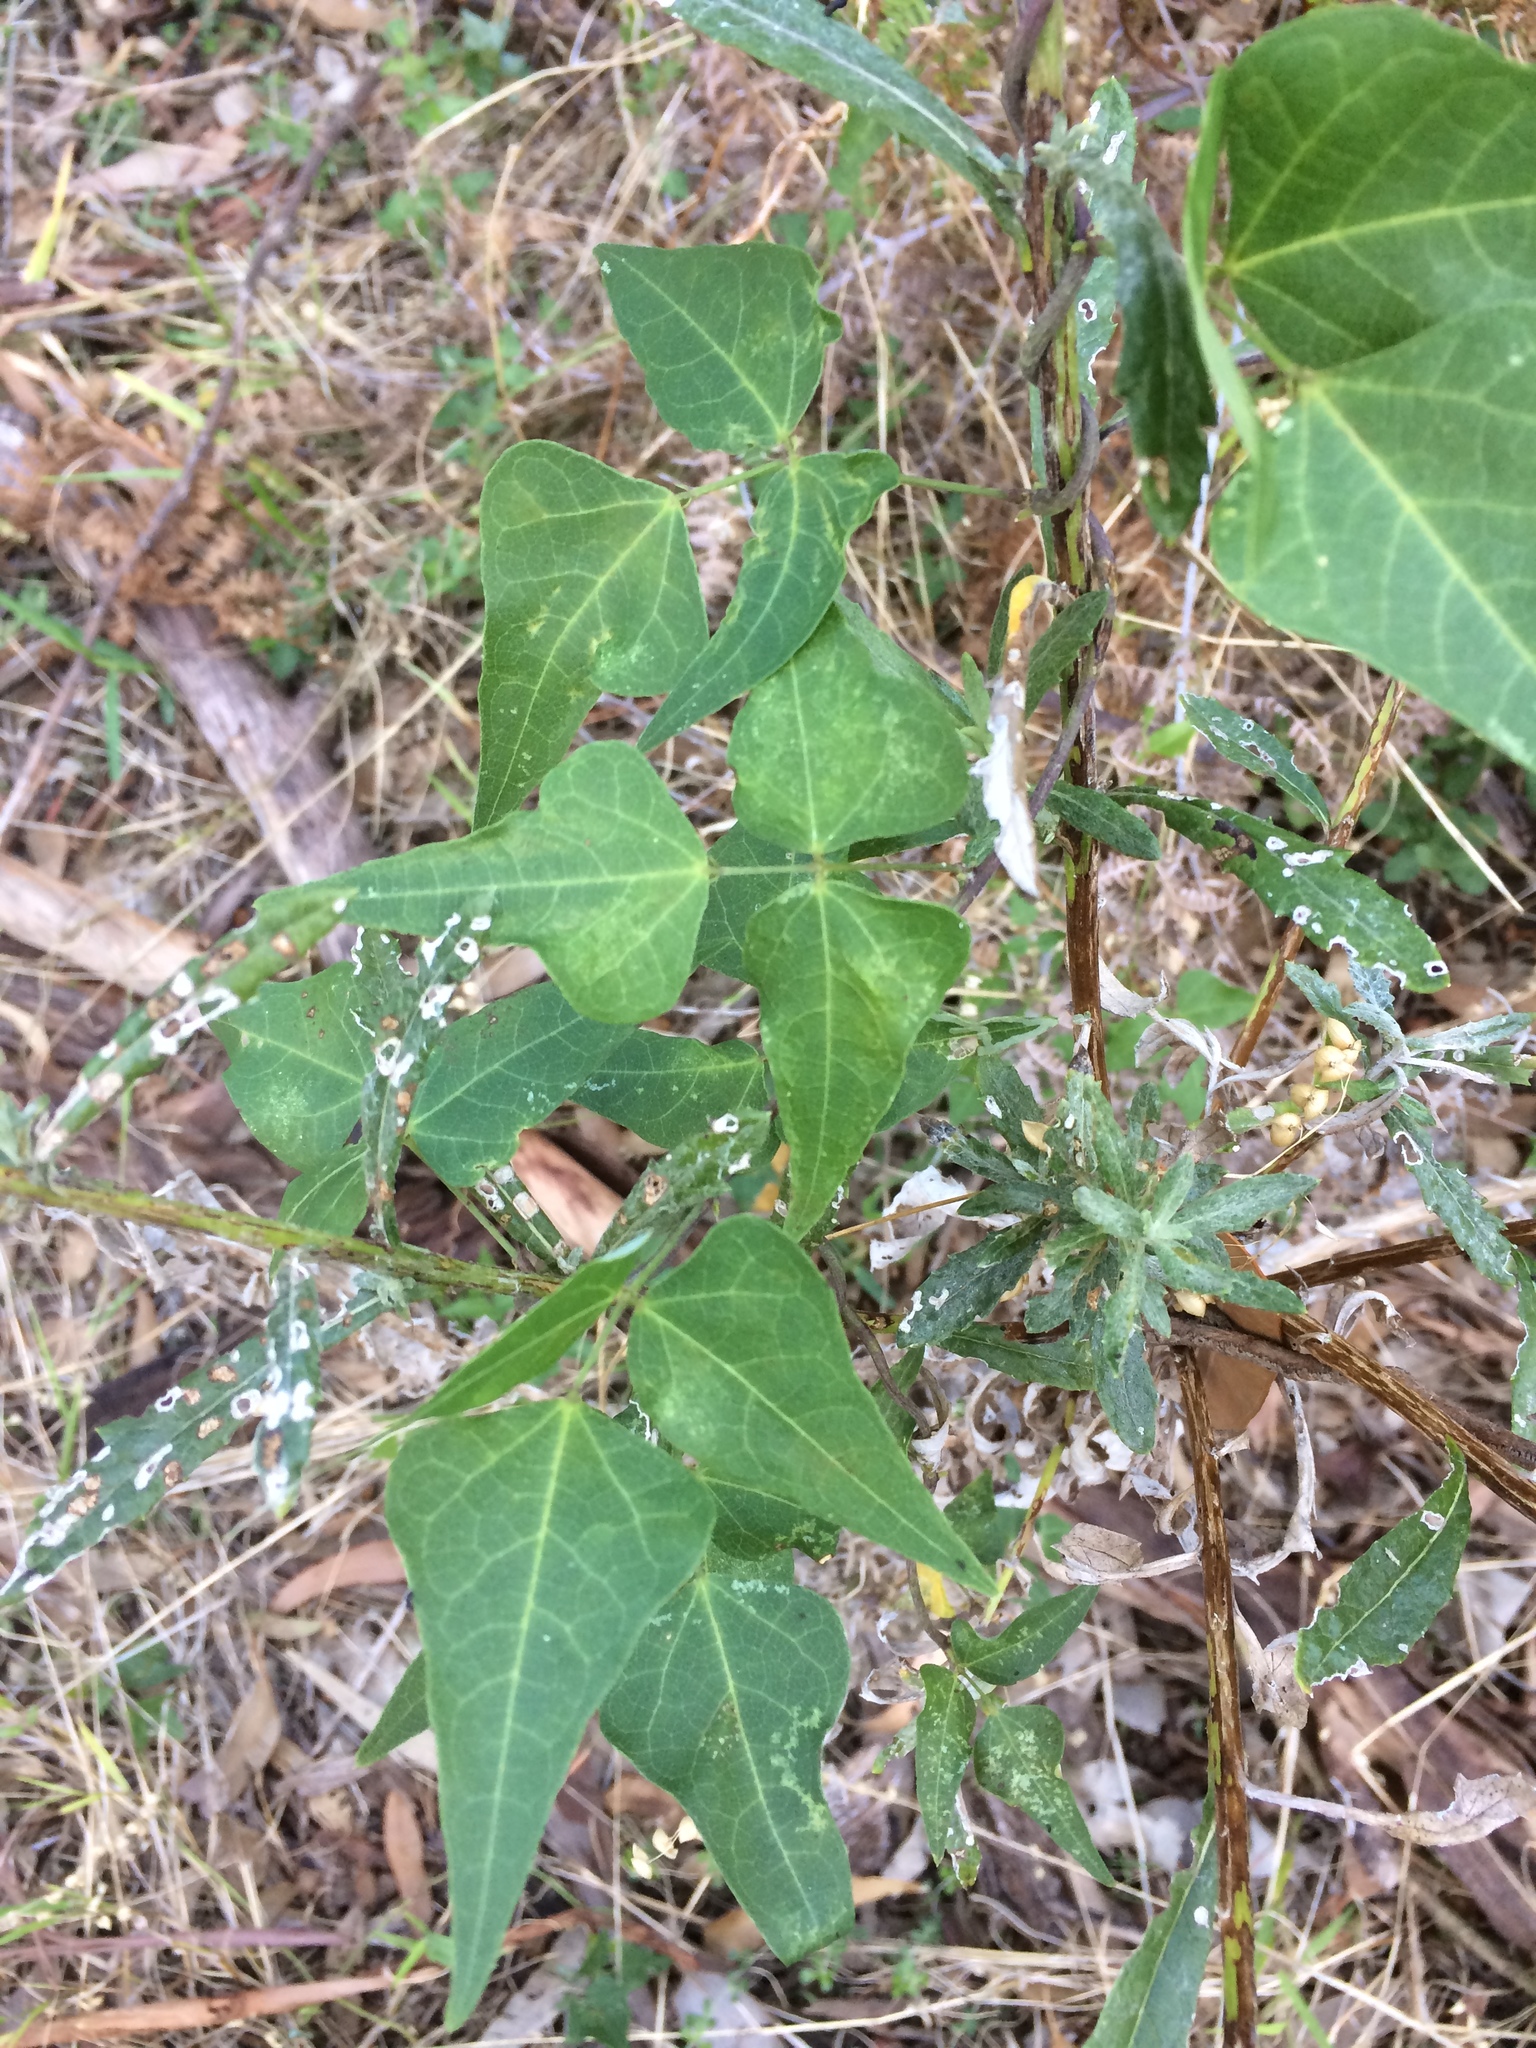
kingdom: Plantae
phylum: Tracheophyta
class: Magnoliopsida
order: Fabales
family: Fabaceae
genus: Dipogon
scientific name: Dipogon lignosus
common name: Okie bean
